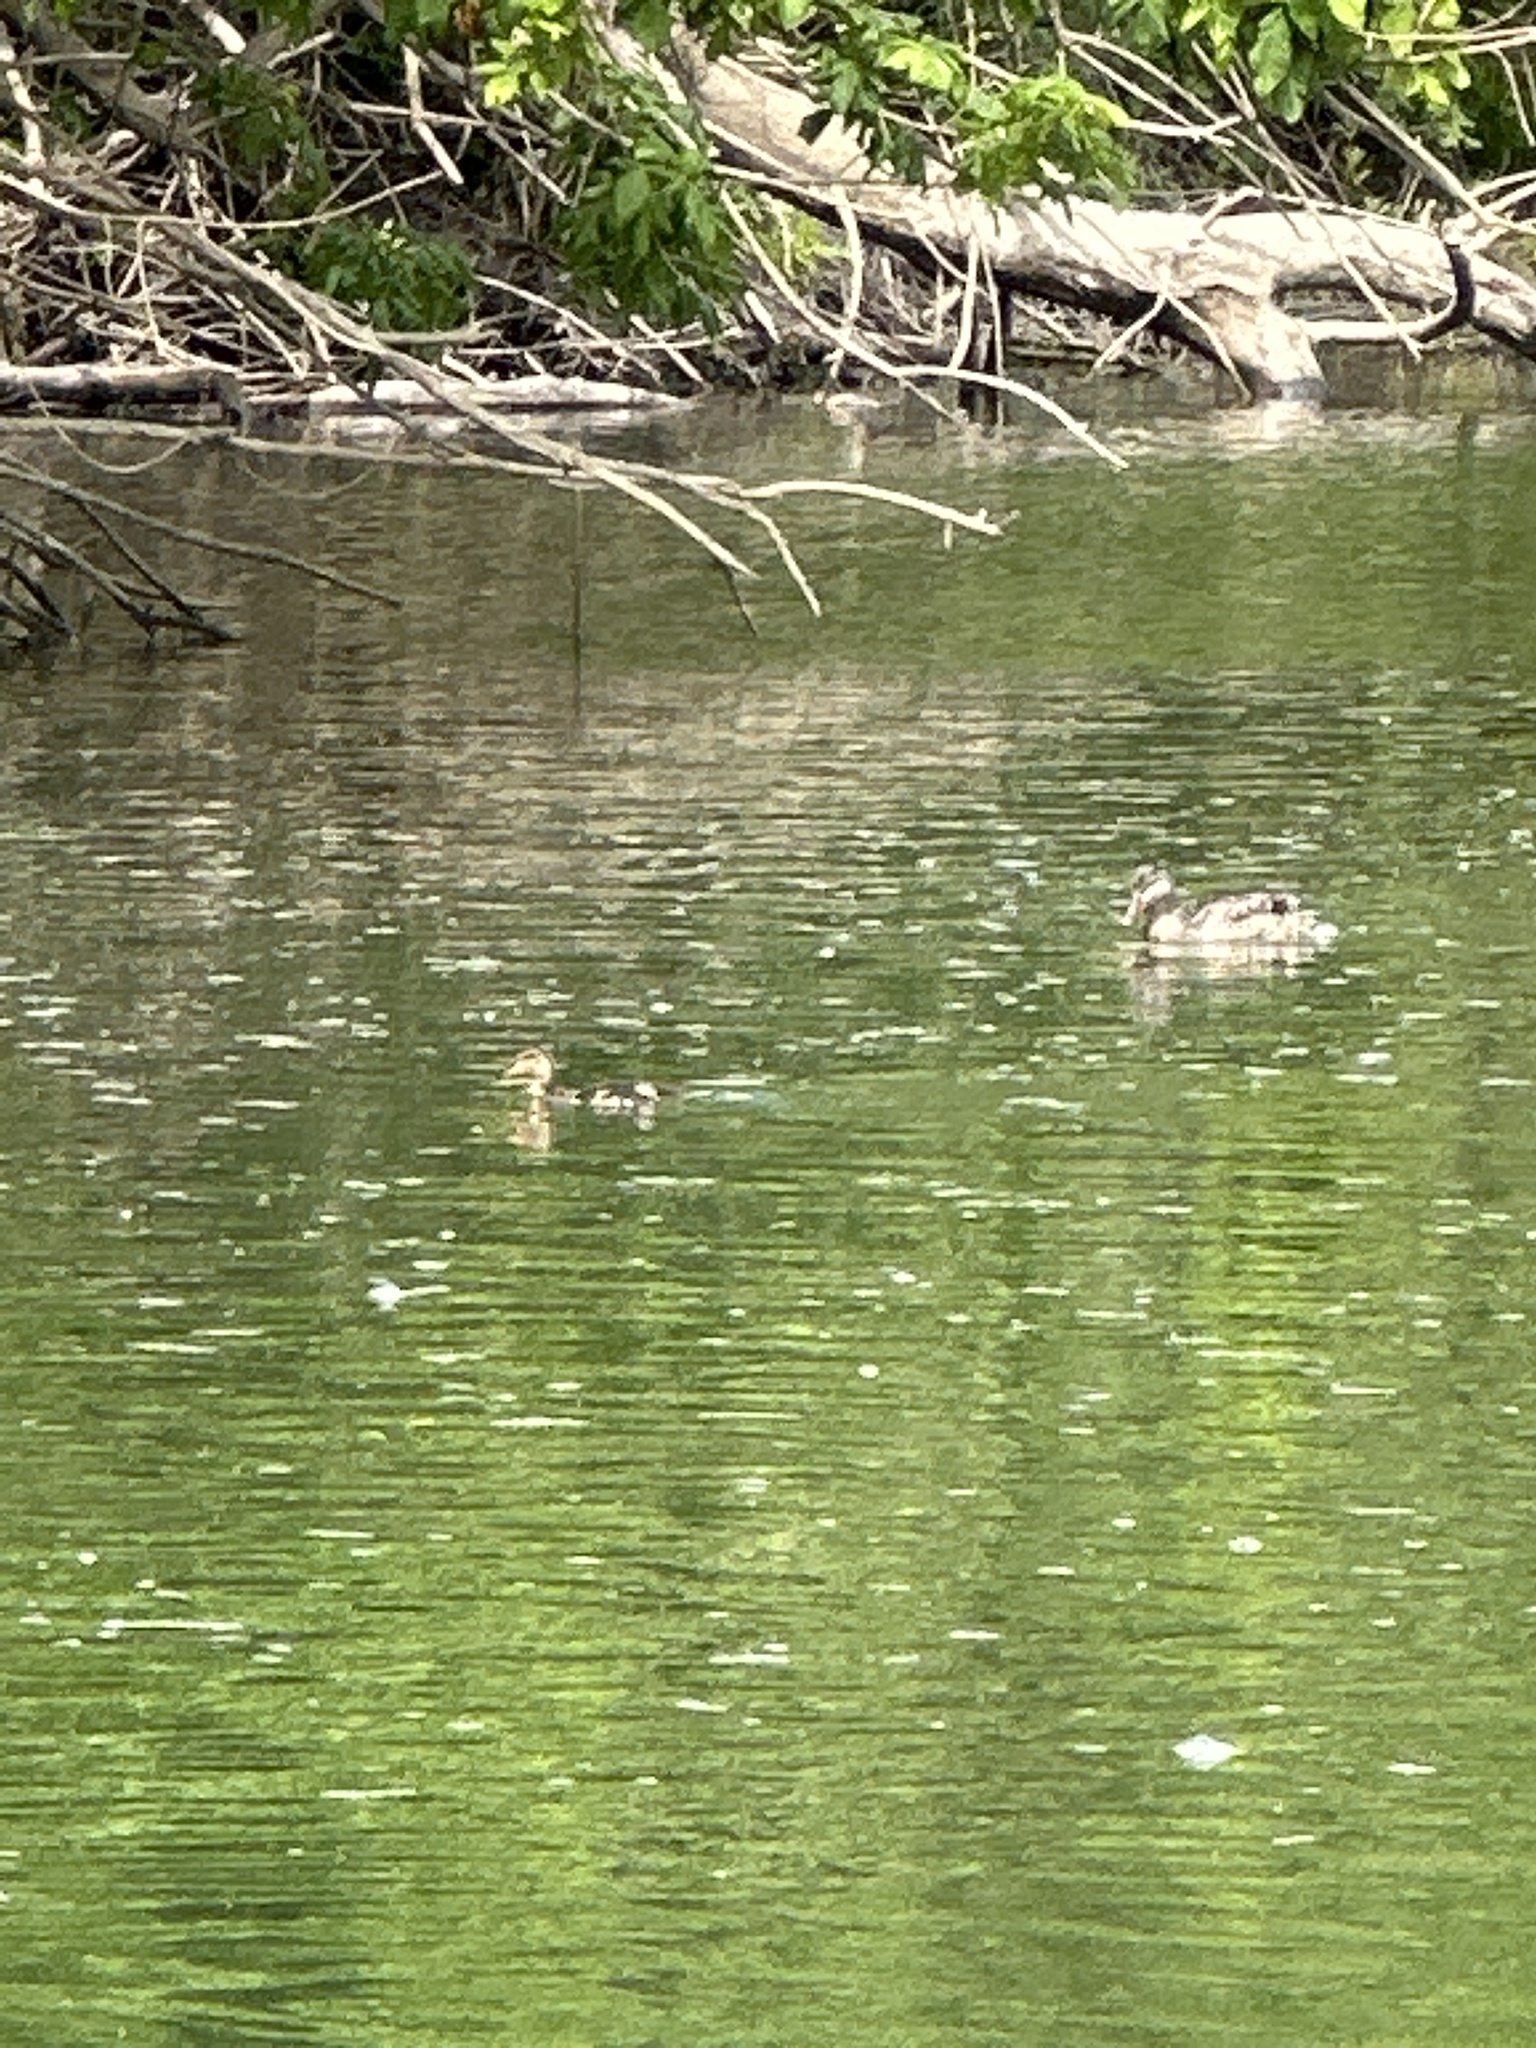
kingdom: Animalia
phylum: Chordata
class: Aves
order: Anseriformes
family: Anatidae
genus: Anas
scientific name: Anas platyrhynchos
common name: Mallard
